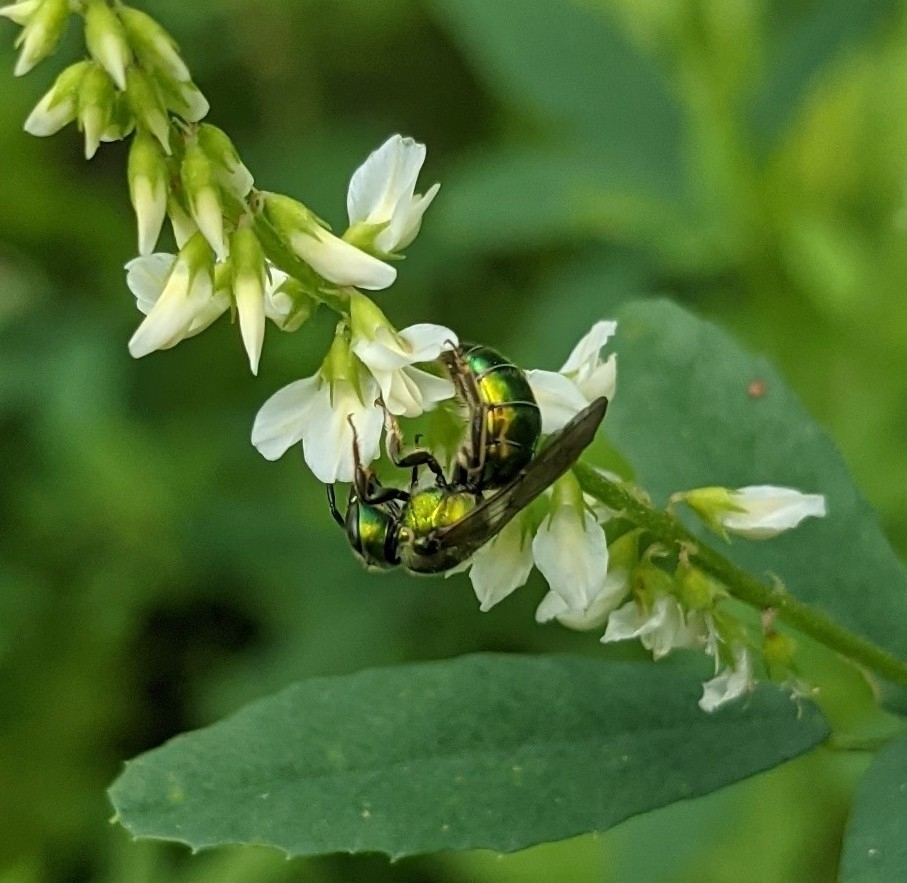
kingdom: Animalia
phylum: Arthropoda
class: Insecta
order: Hymenoptera
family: Halictidae
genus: Augochlora
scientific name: Augochlora pura
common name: Pure green sweat bee
